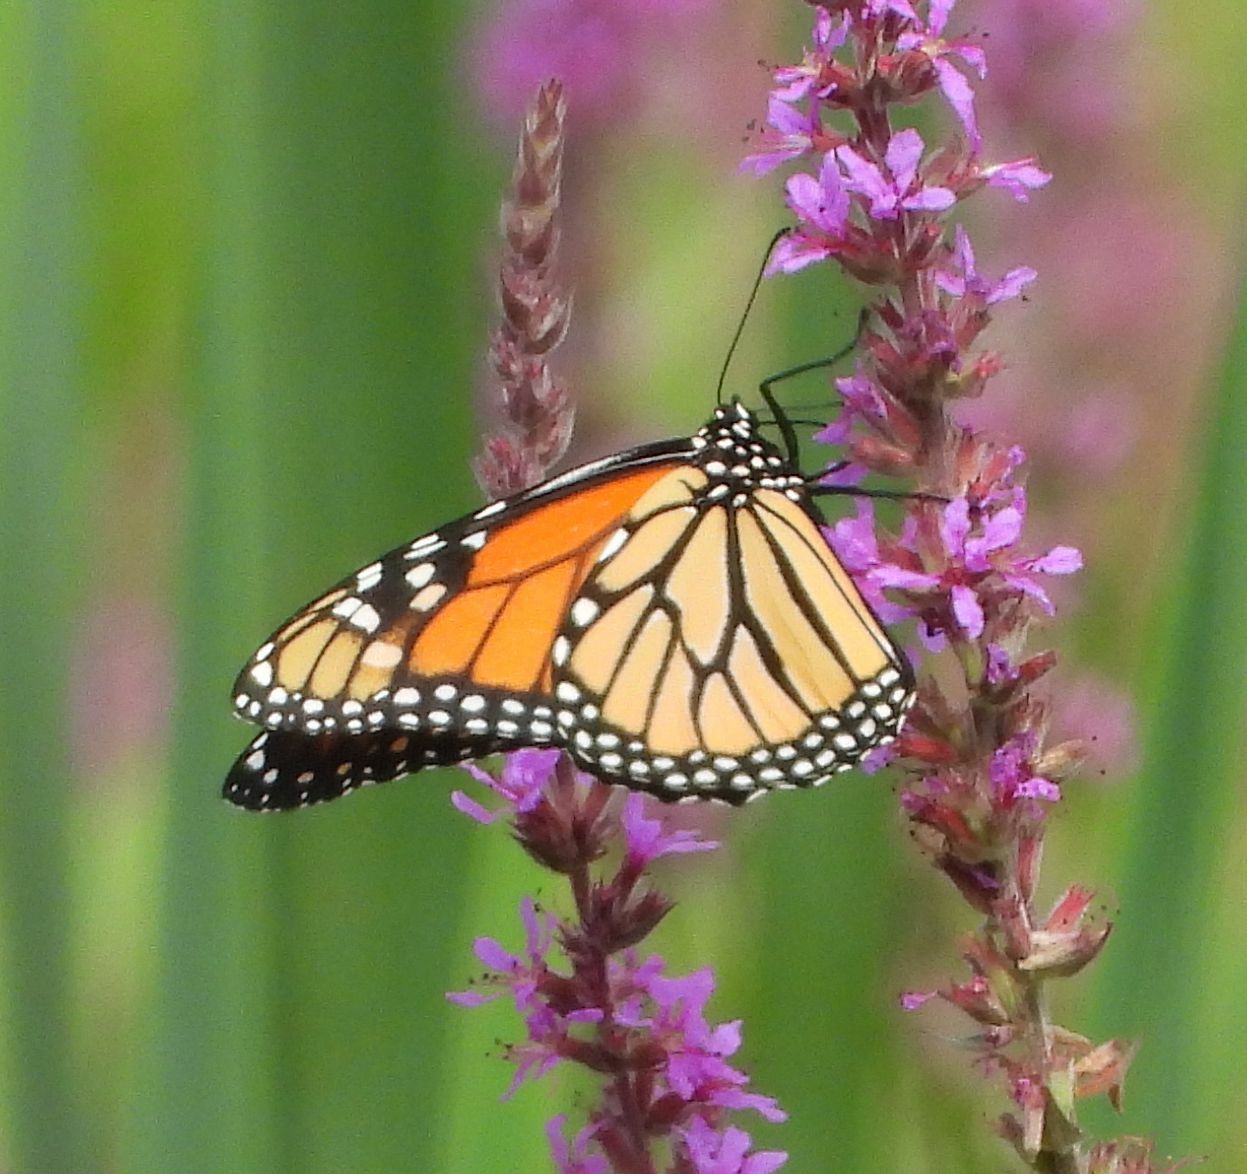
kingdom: Animalia
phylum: Arthropoda
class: Insecta
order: Lepidoptera
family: Nymphalidae
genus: Danaus
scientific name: Danaus plexippus
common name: Monarch
